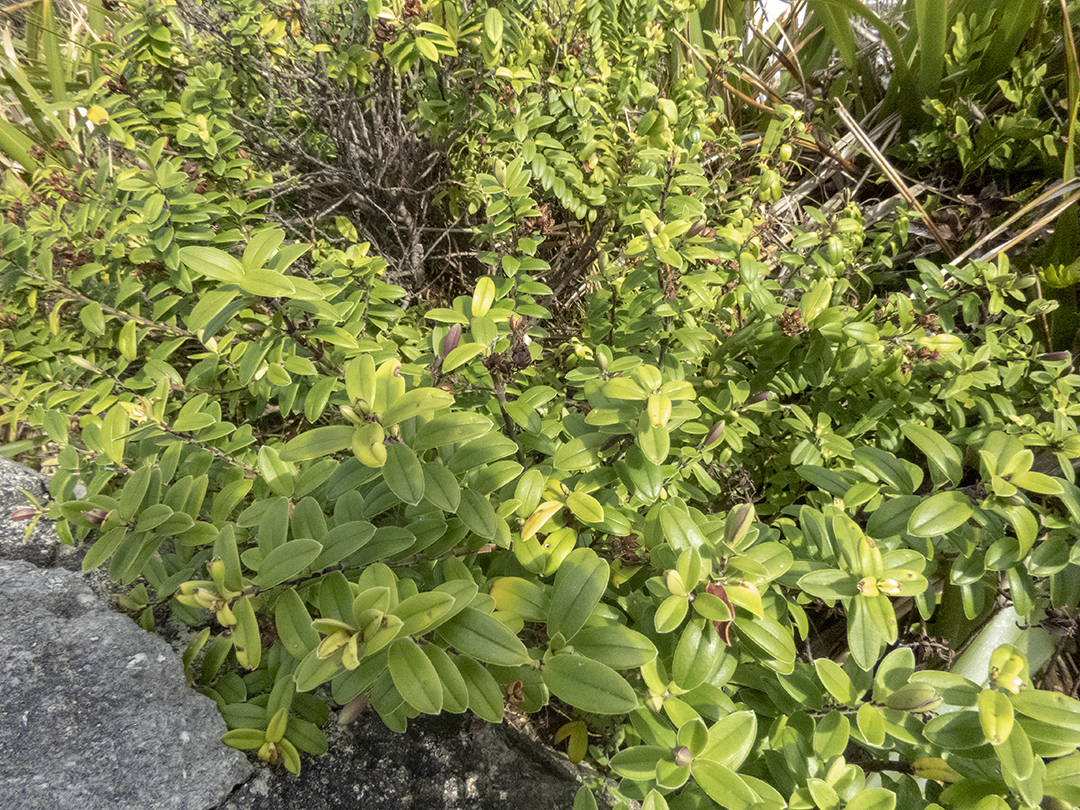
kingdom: Plantae
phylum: Tracheophyta
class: Magnoliopsida
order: Lamiales
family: Plantaginaceae
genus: Veronica
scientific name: Veronica elliptica
